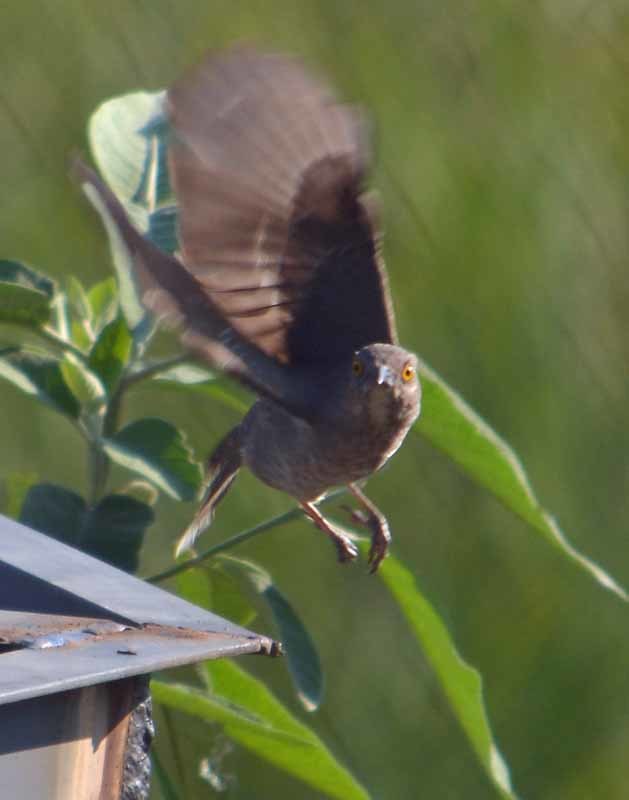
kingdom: Animalia
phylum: Chordata
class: Aves
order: Passeriformes
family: Mimidae
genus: Toxostoma
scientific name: Toxostoma curvirostre
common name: Curve-billed thrasher
